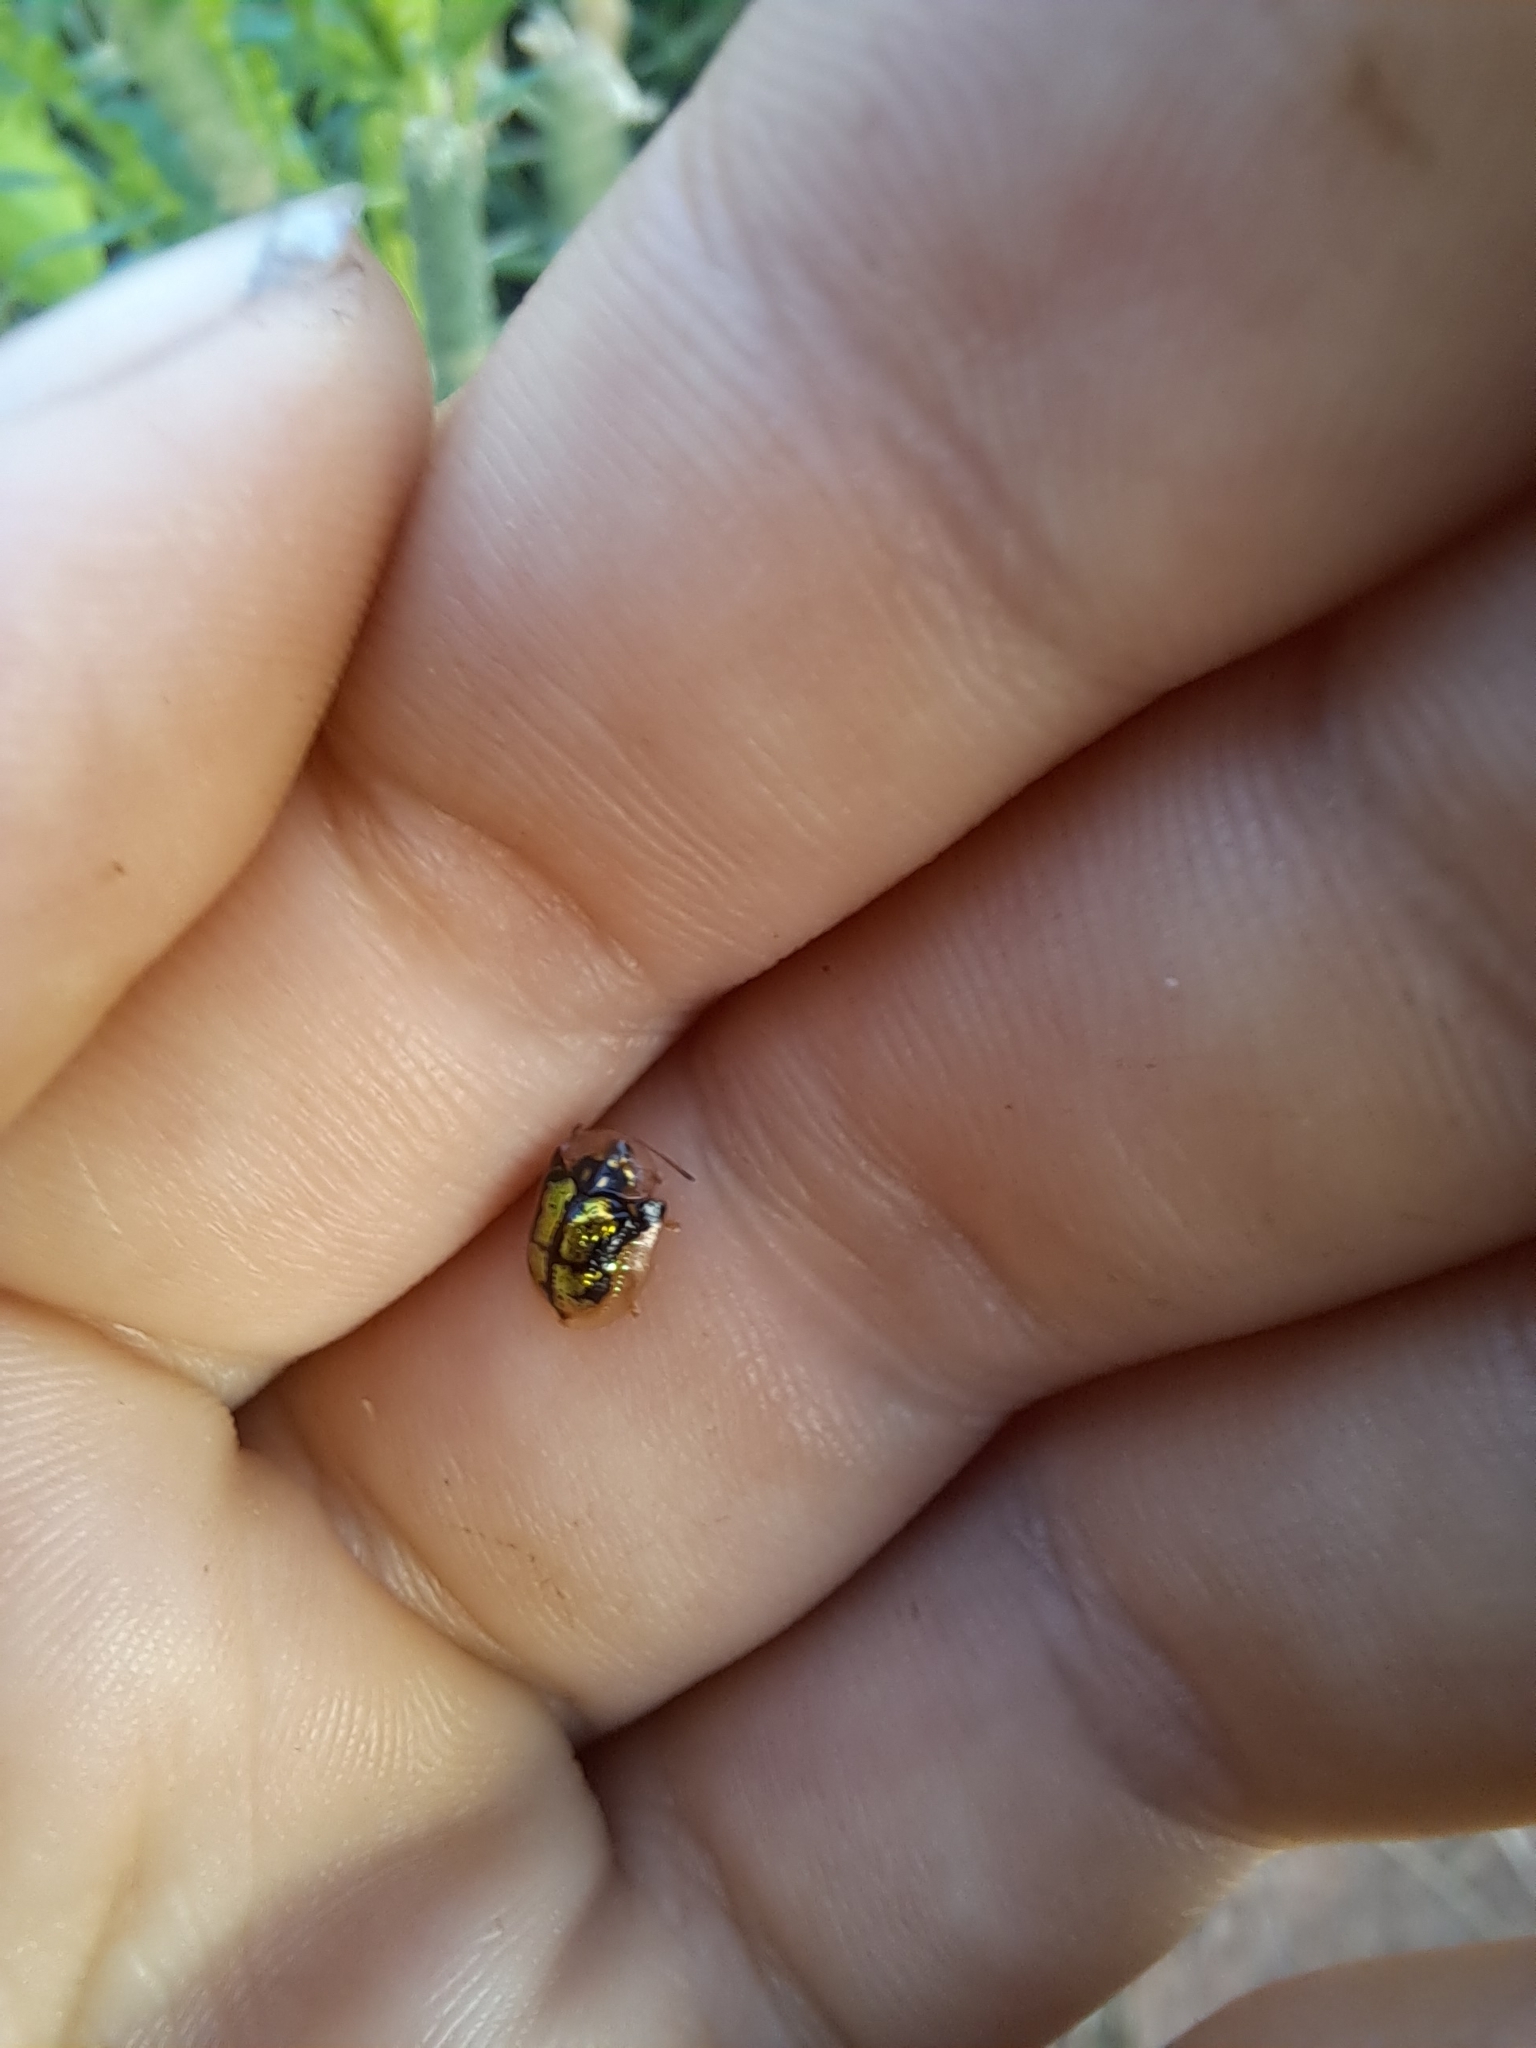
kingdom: Animalia
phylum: Arthropoda
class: Insecta
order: Coleoptera
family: Chrysomelidae
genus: Deloyala
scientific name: Deloyala guttata
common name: Mottled tortoise beetle
